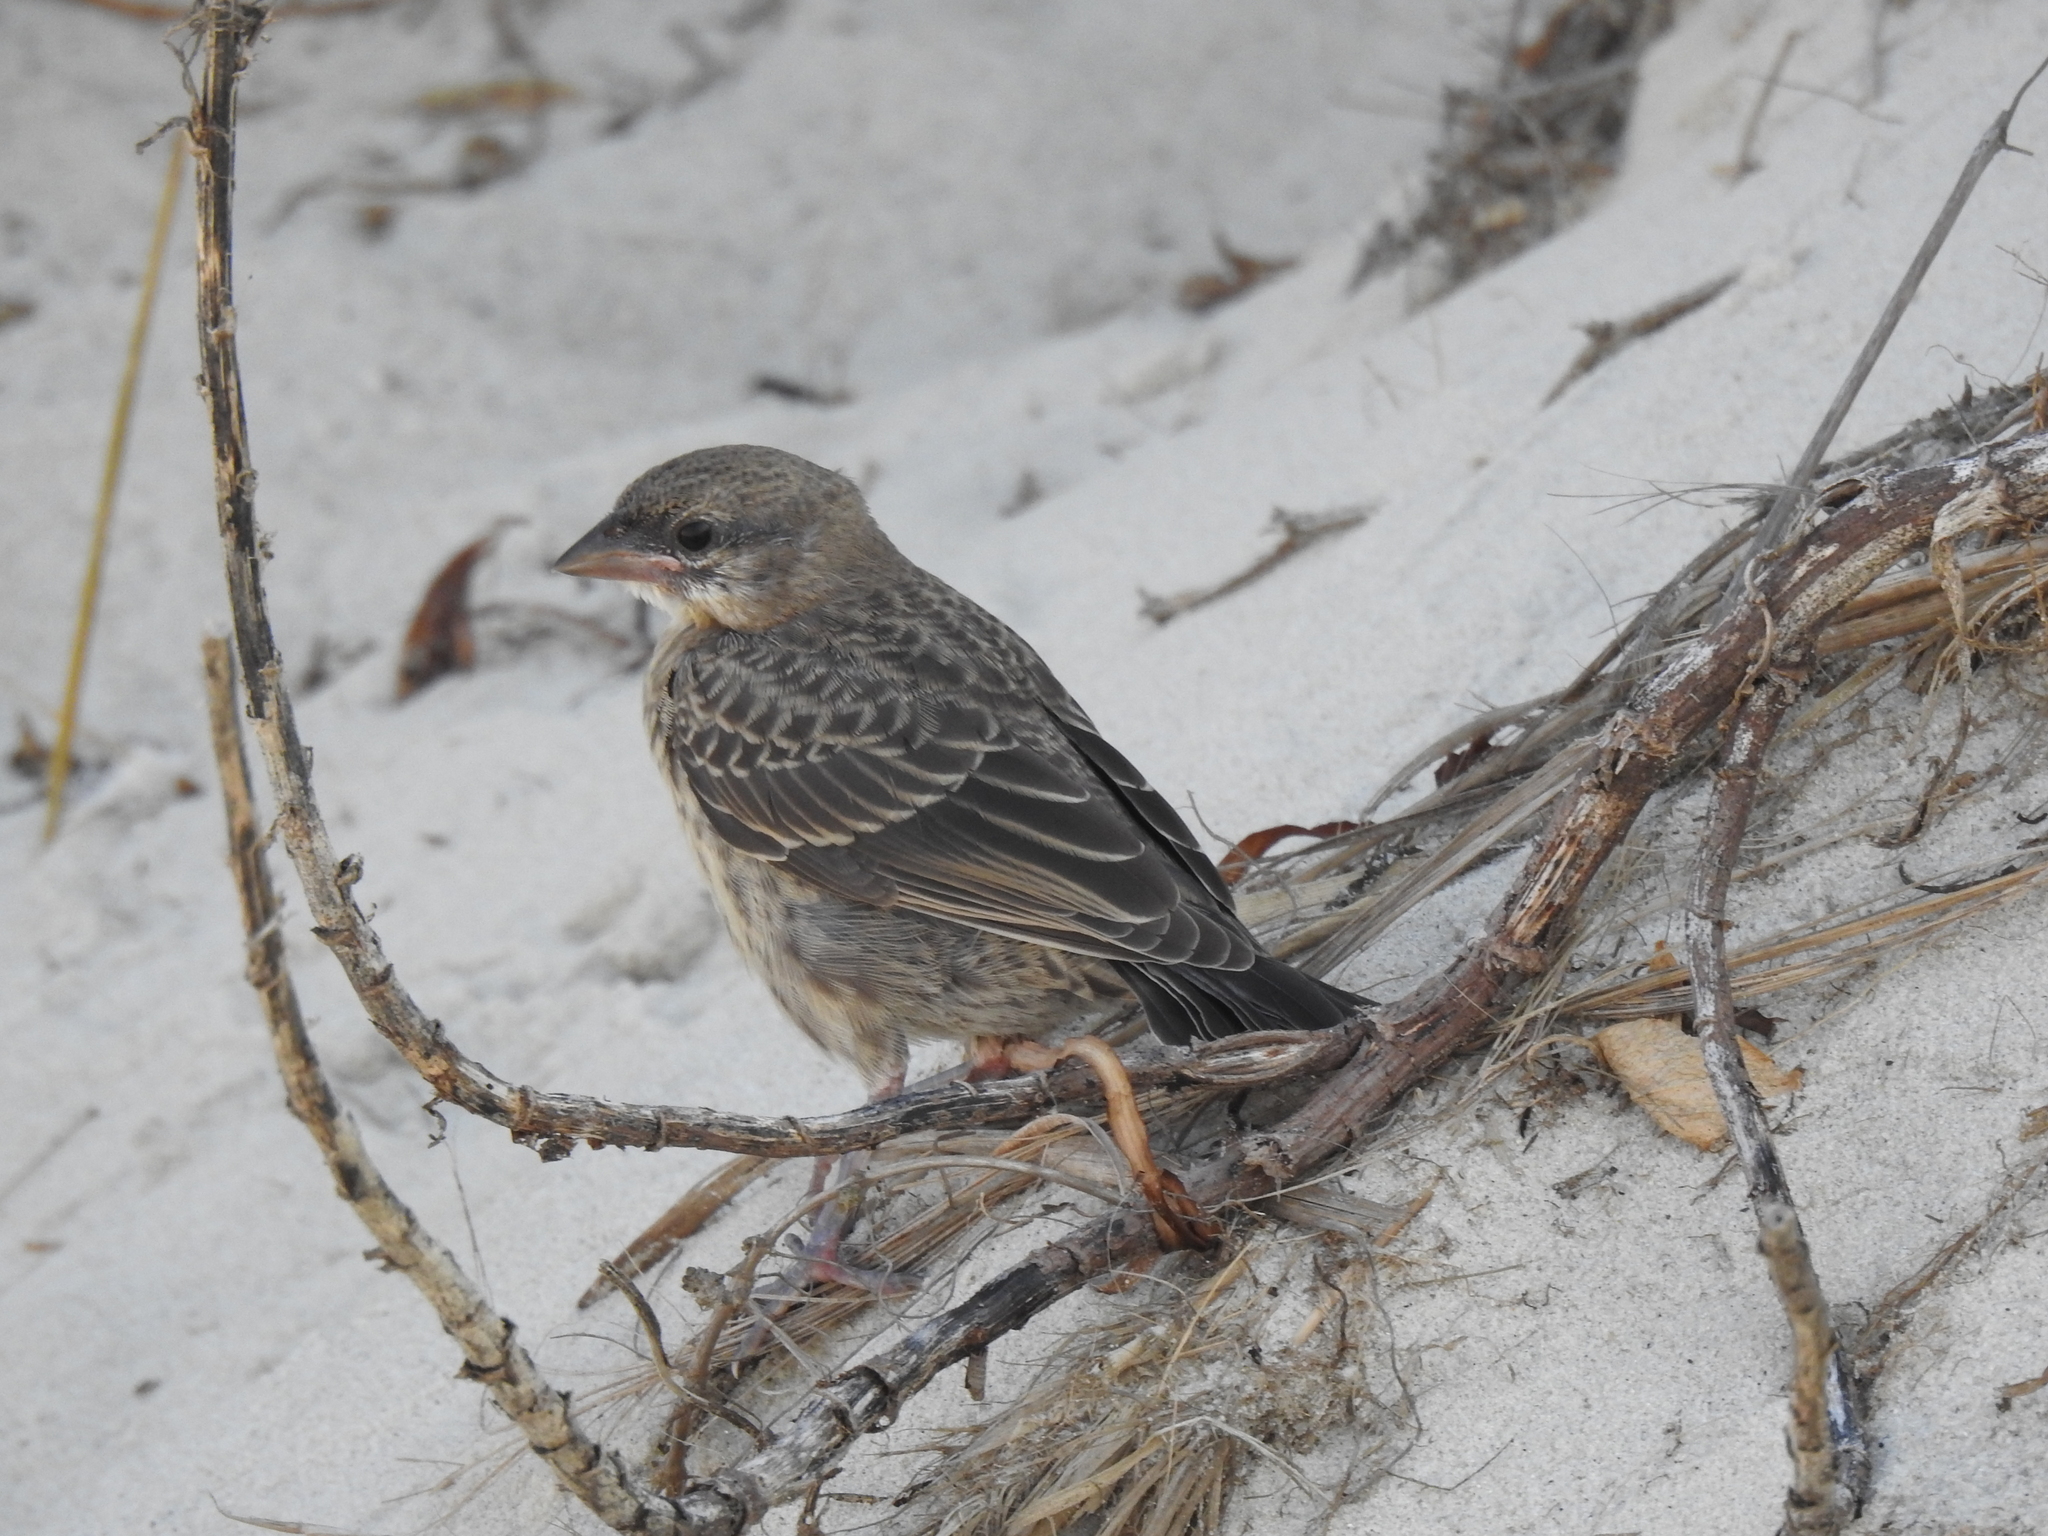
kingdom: Animalia
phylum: Chordata
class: Aves
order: Passeriformes
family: Icteridae
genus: Molothrus
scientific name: Molothrus ater
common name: Brown-headed cowbird
